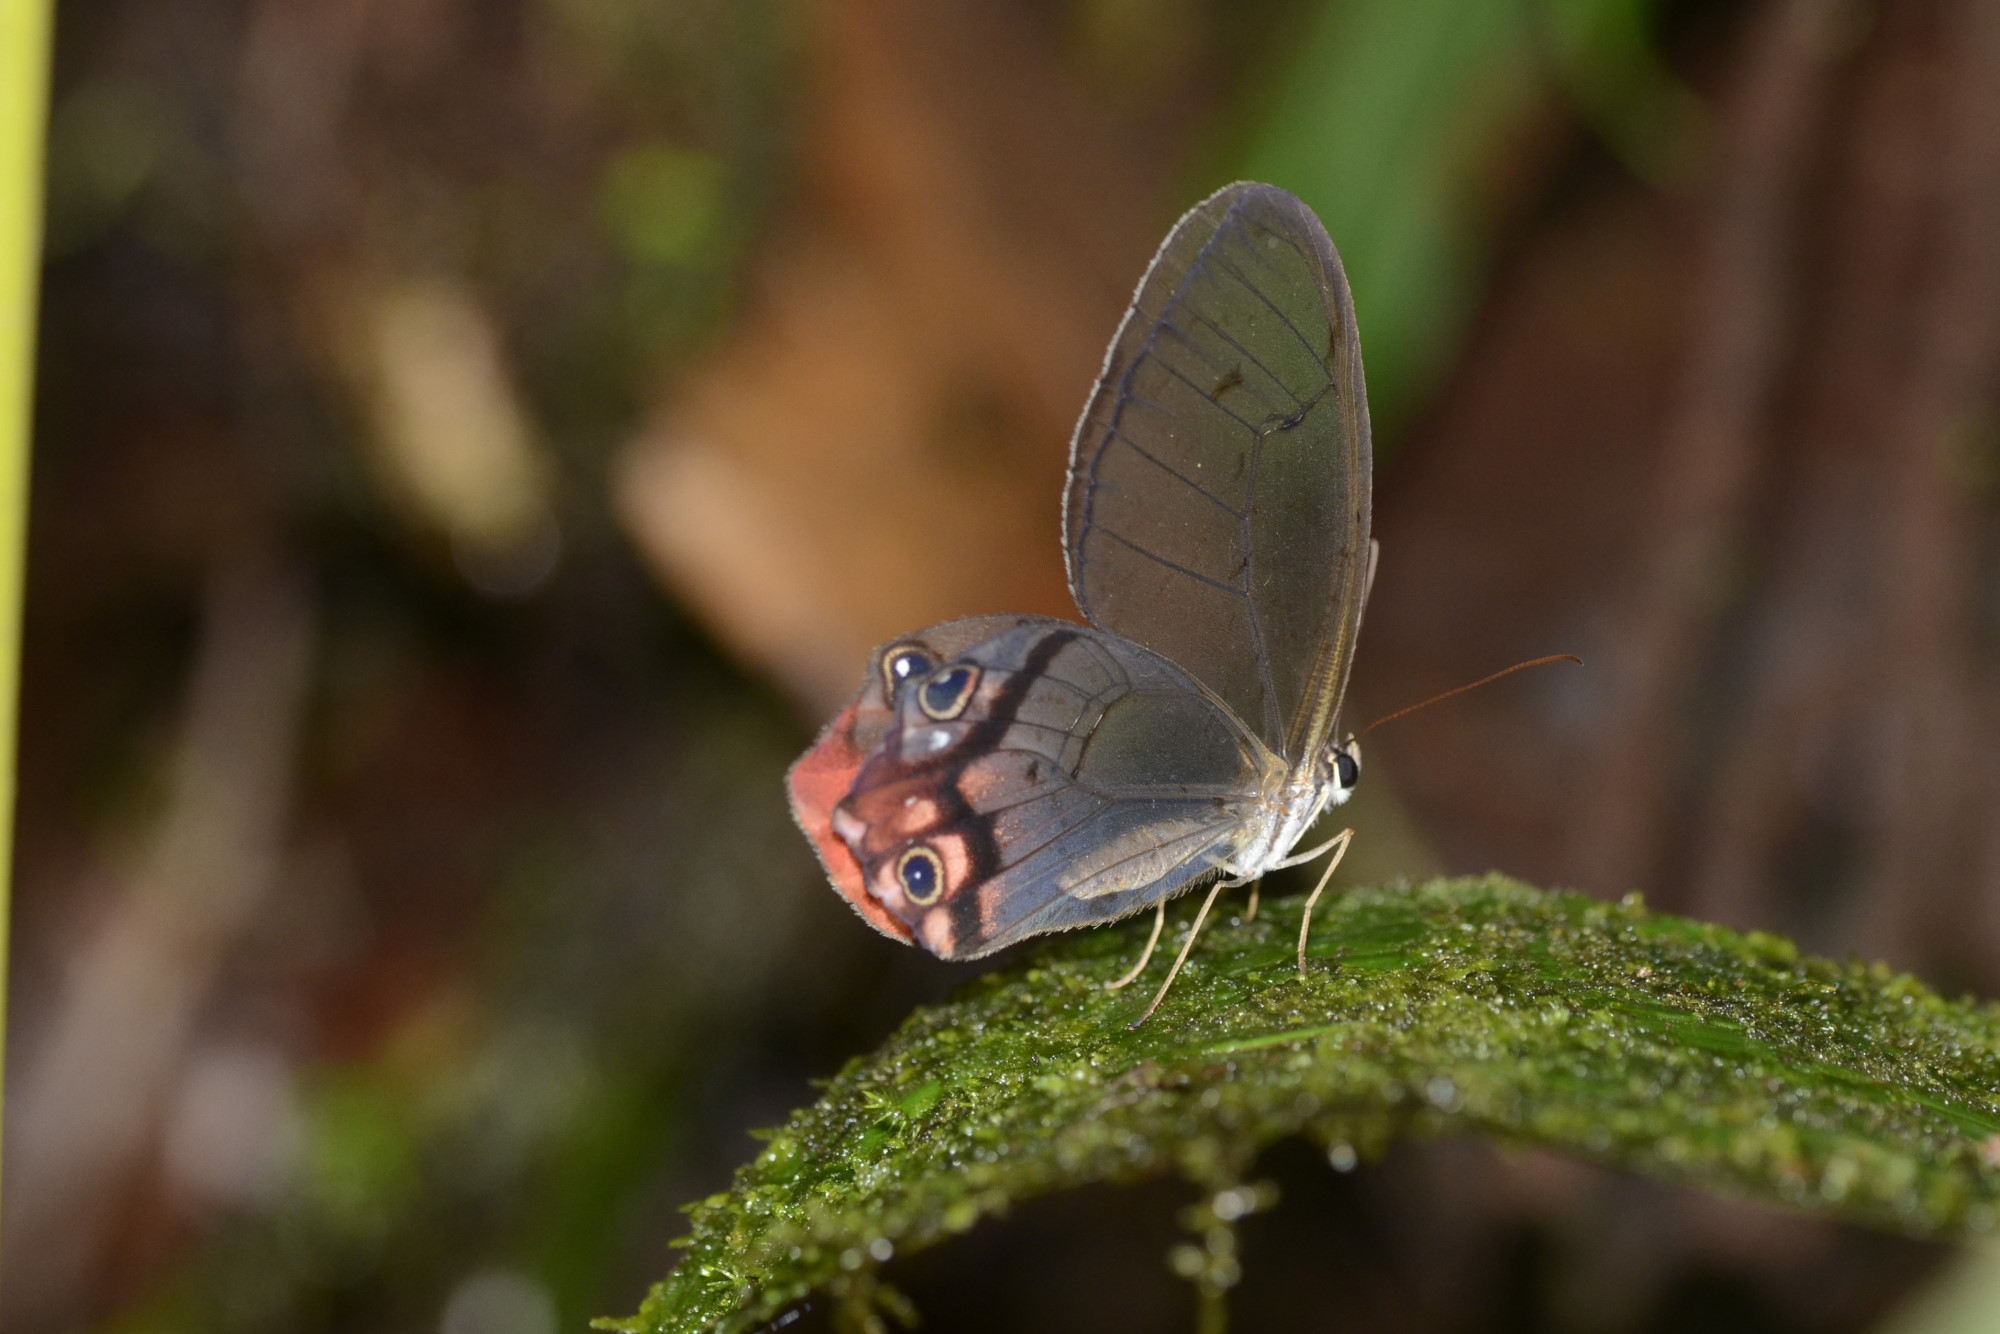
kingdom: Animalia
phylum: Arthropoda
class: Insecta
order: Lepidoptera
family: Nymphalidae
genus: Haetera
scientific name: Haetera macleannania
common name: Reddish clearwing-satyr
